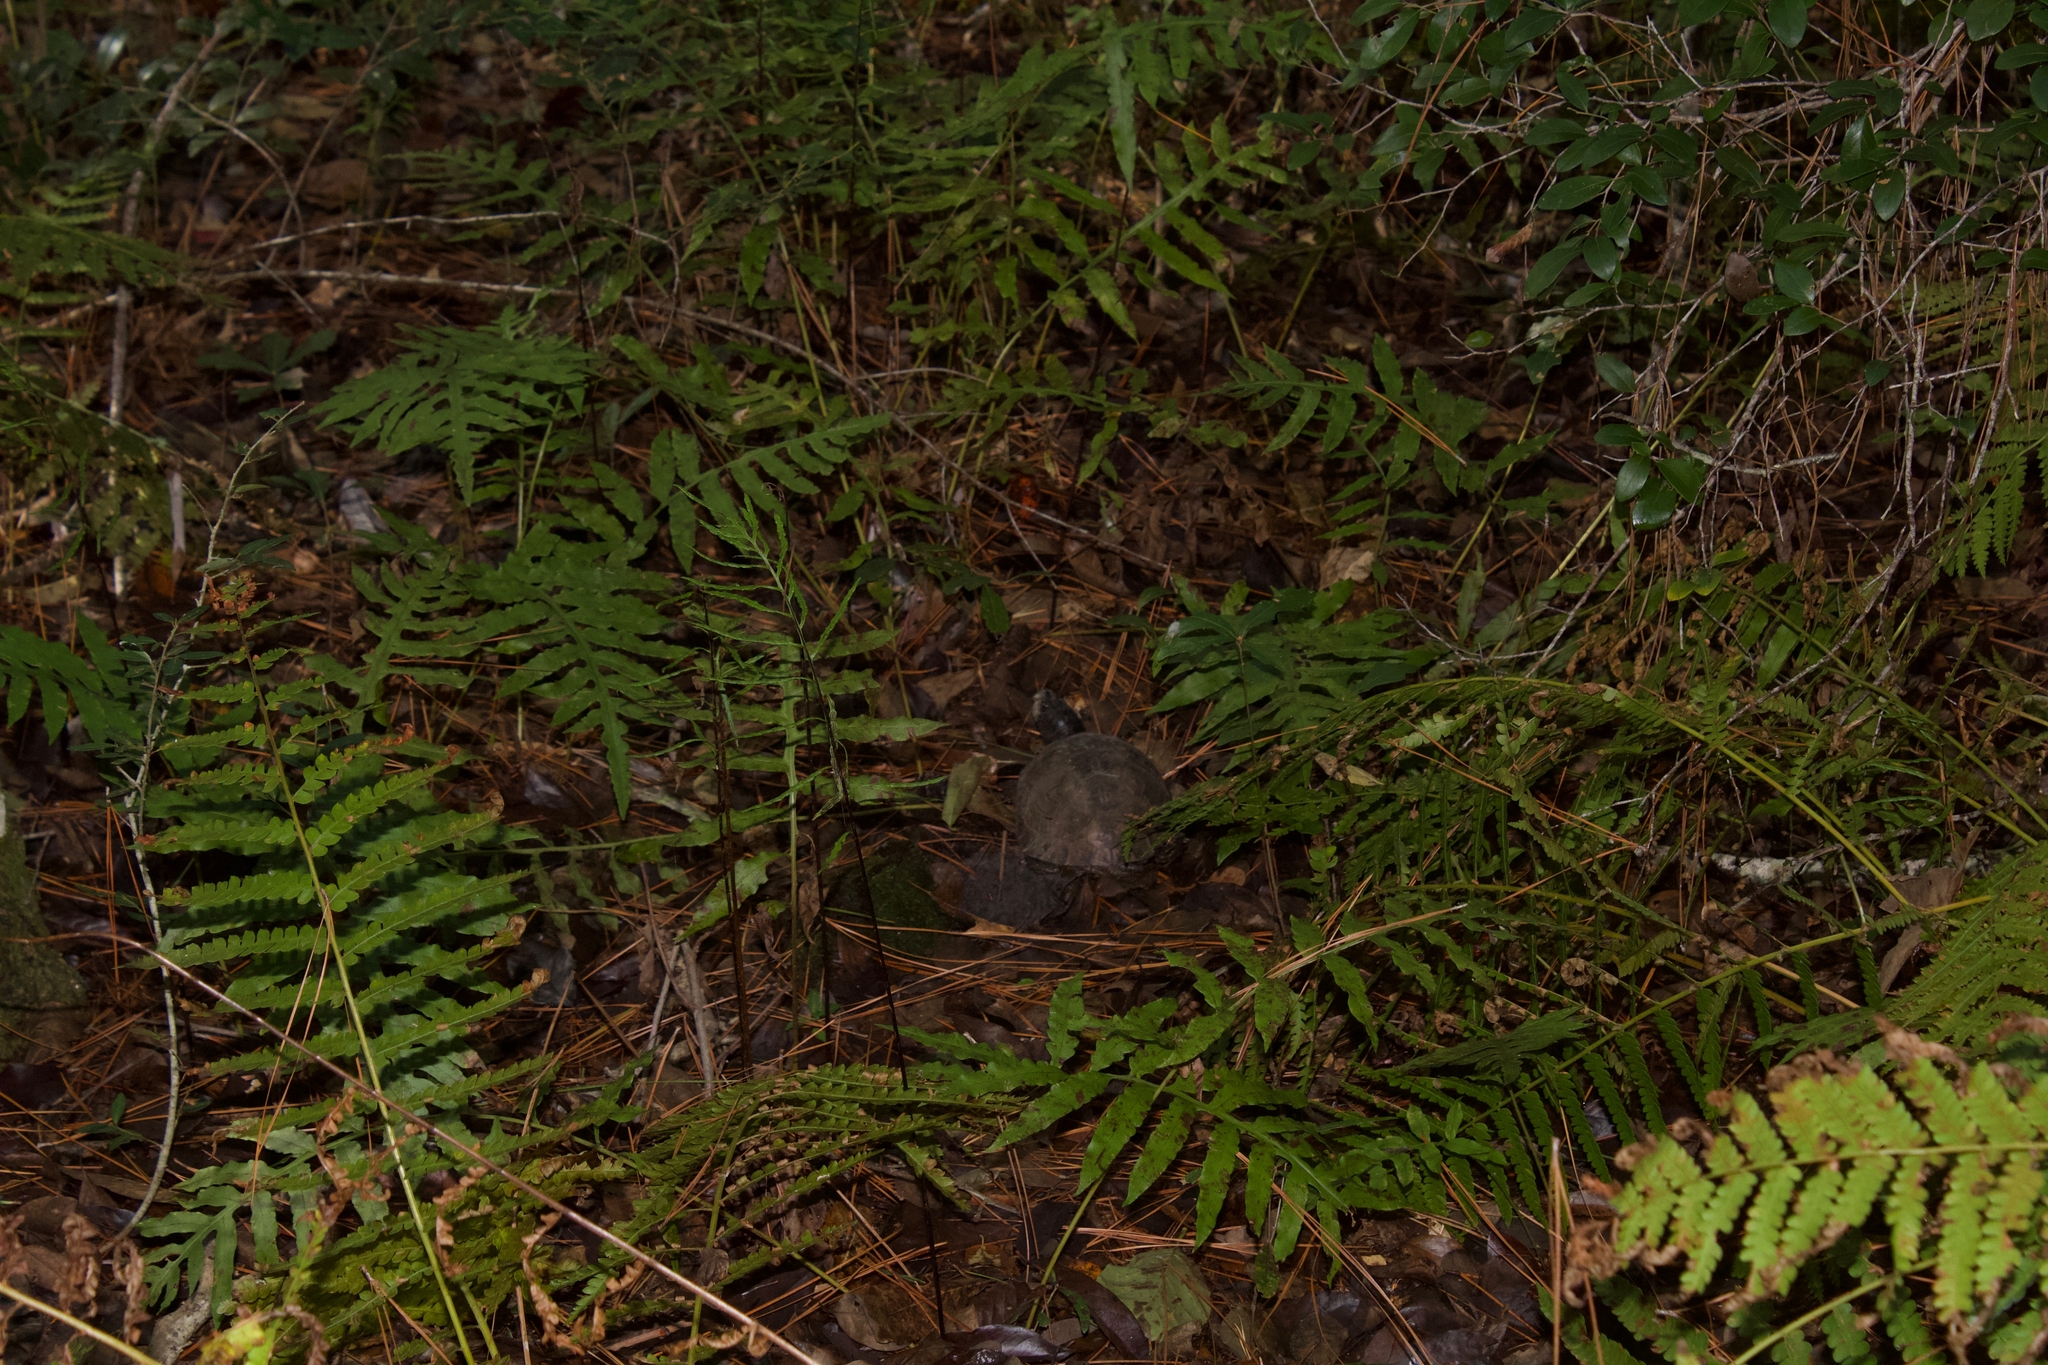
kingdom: Animalia
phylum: Chordata
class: Testudines
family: Emydidae
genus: Terrapene
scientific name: Terrapene carolina
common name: Common box turtle
